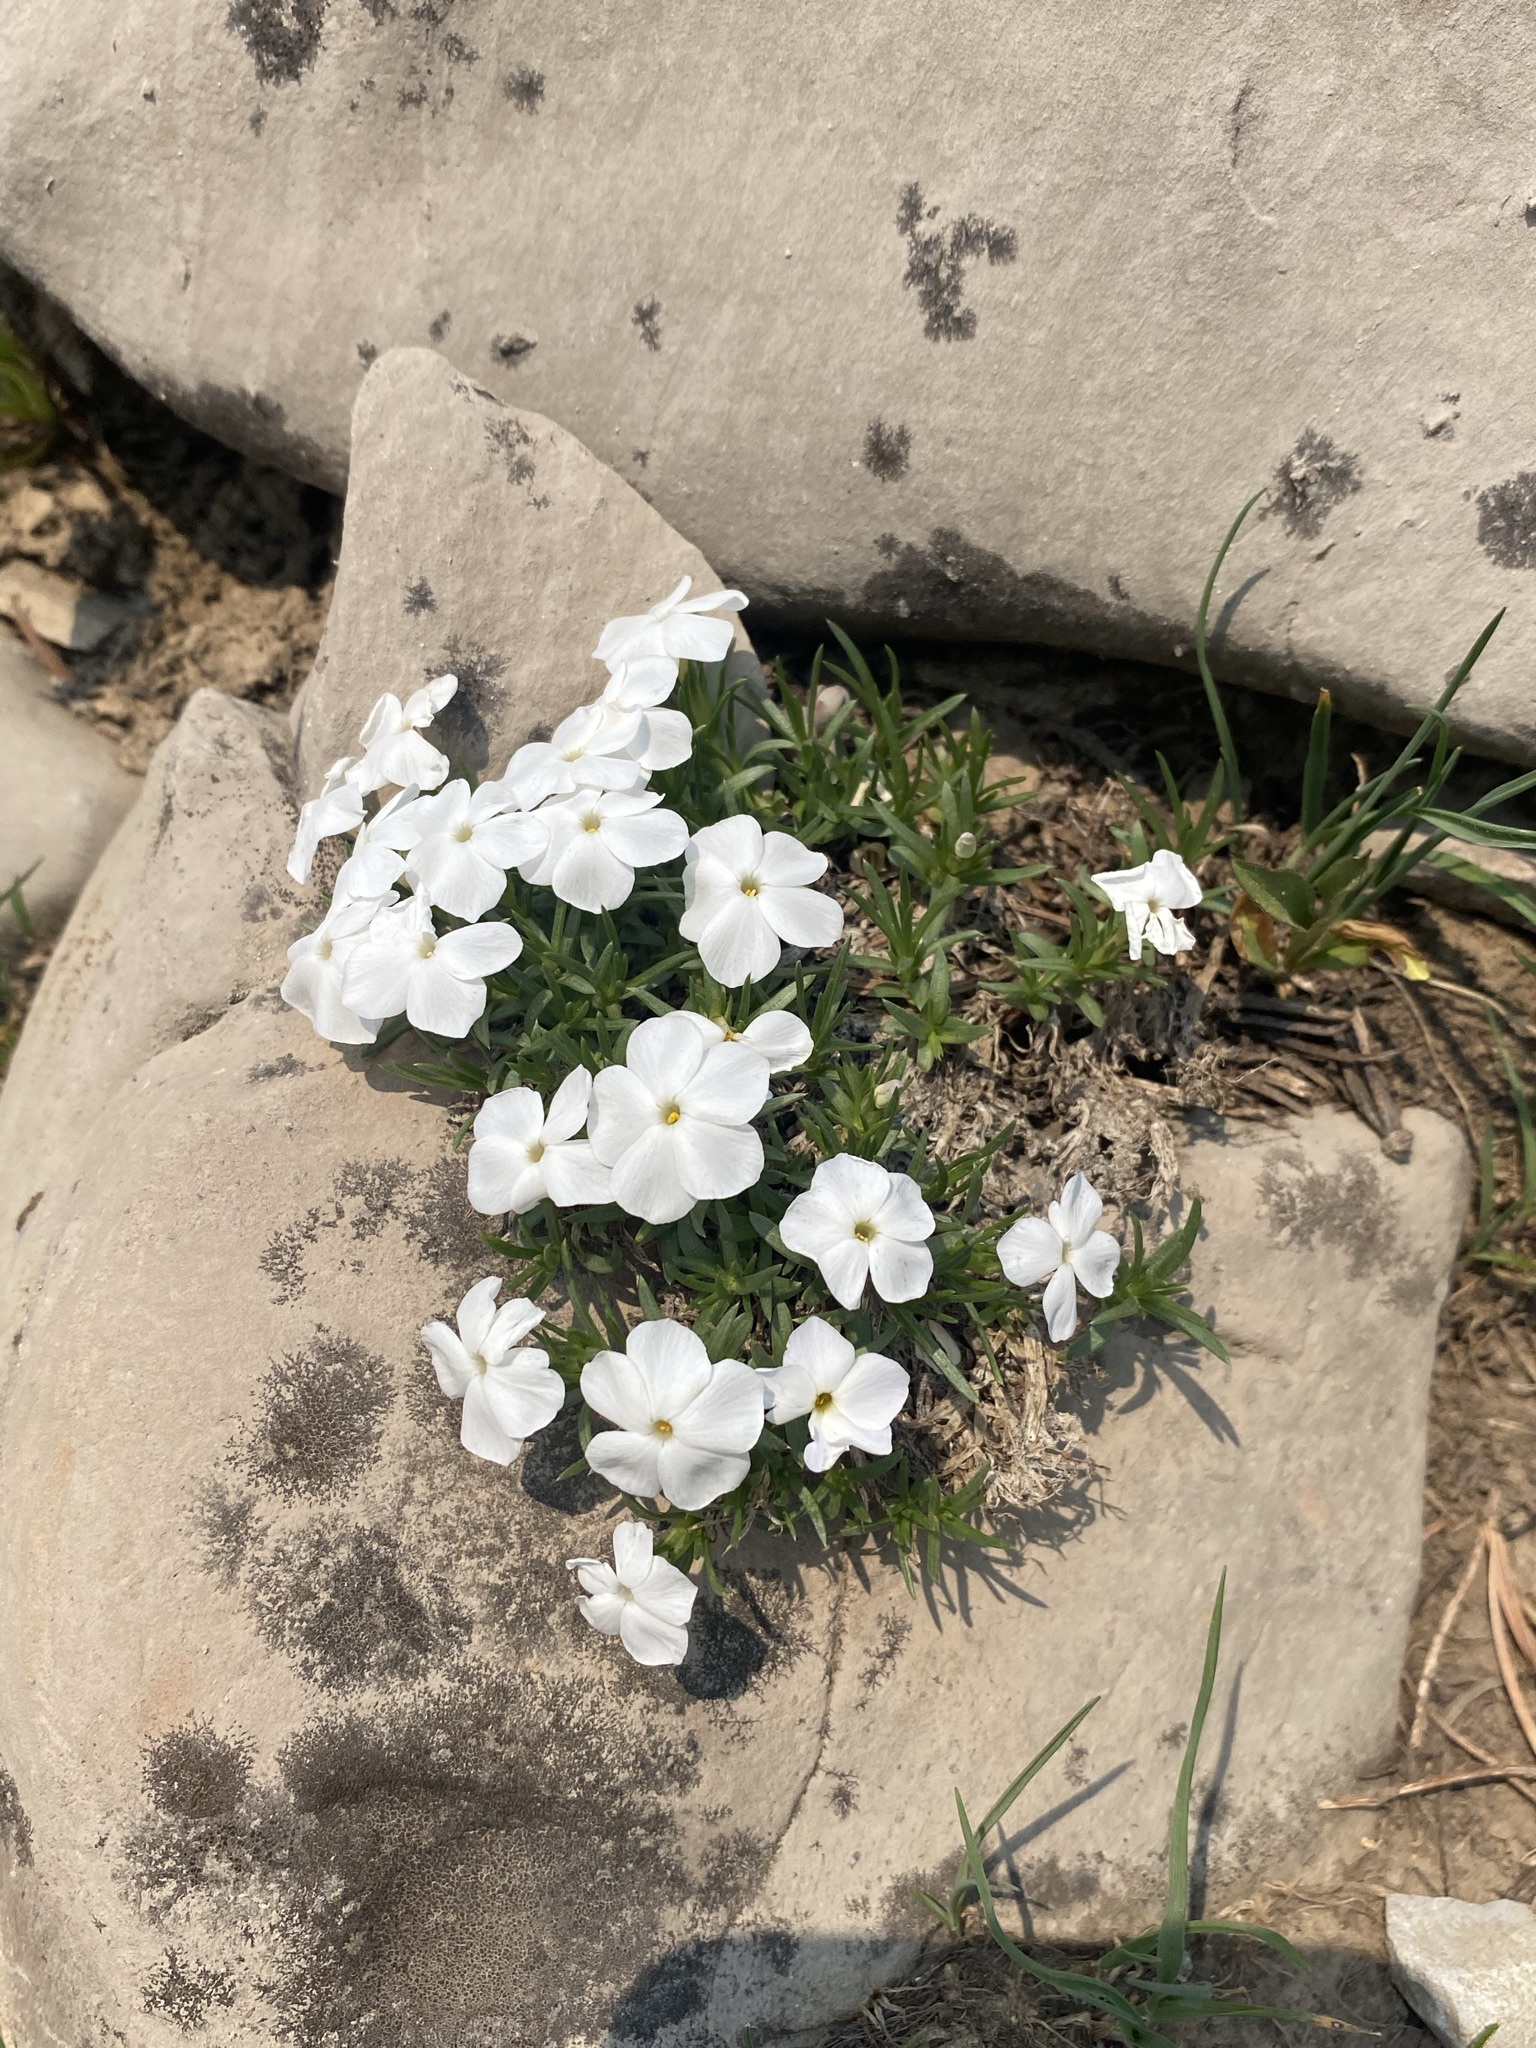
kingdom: Plantae
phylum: Tracheophyta
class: Magnoliopsida
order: Ericales
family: Polemoniaceae
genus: Phlox
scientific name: Phlox multiflora
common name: Rocky mountain phlox
